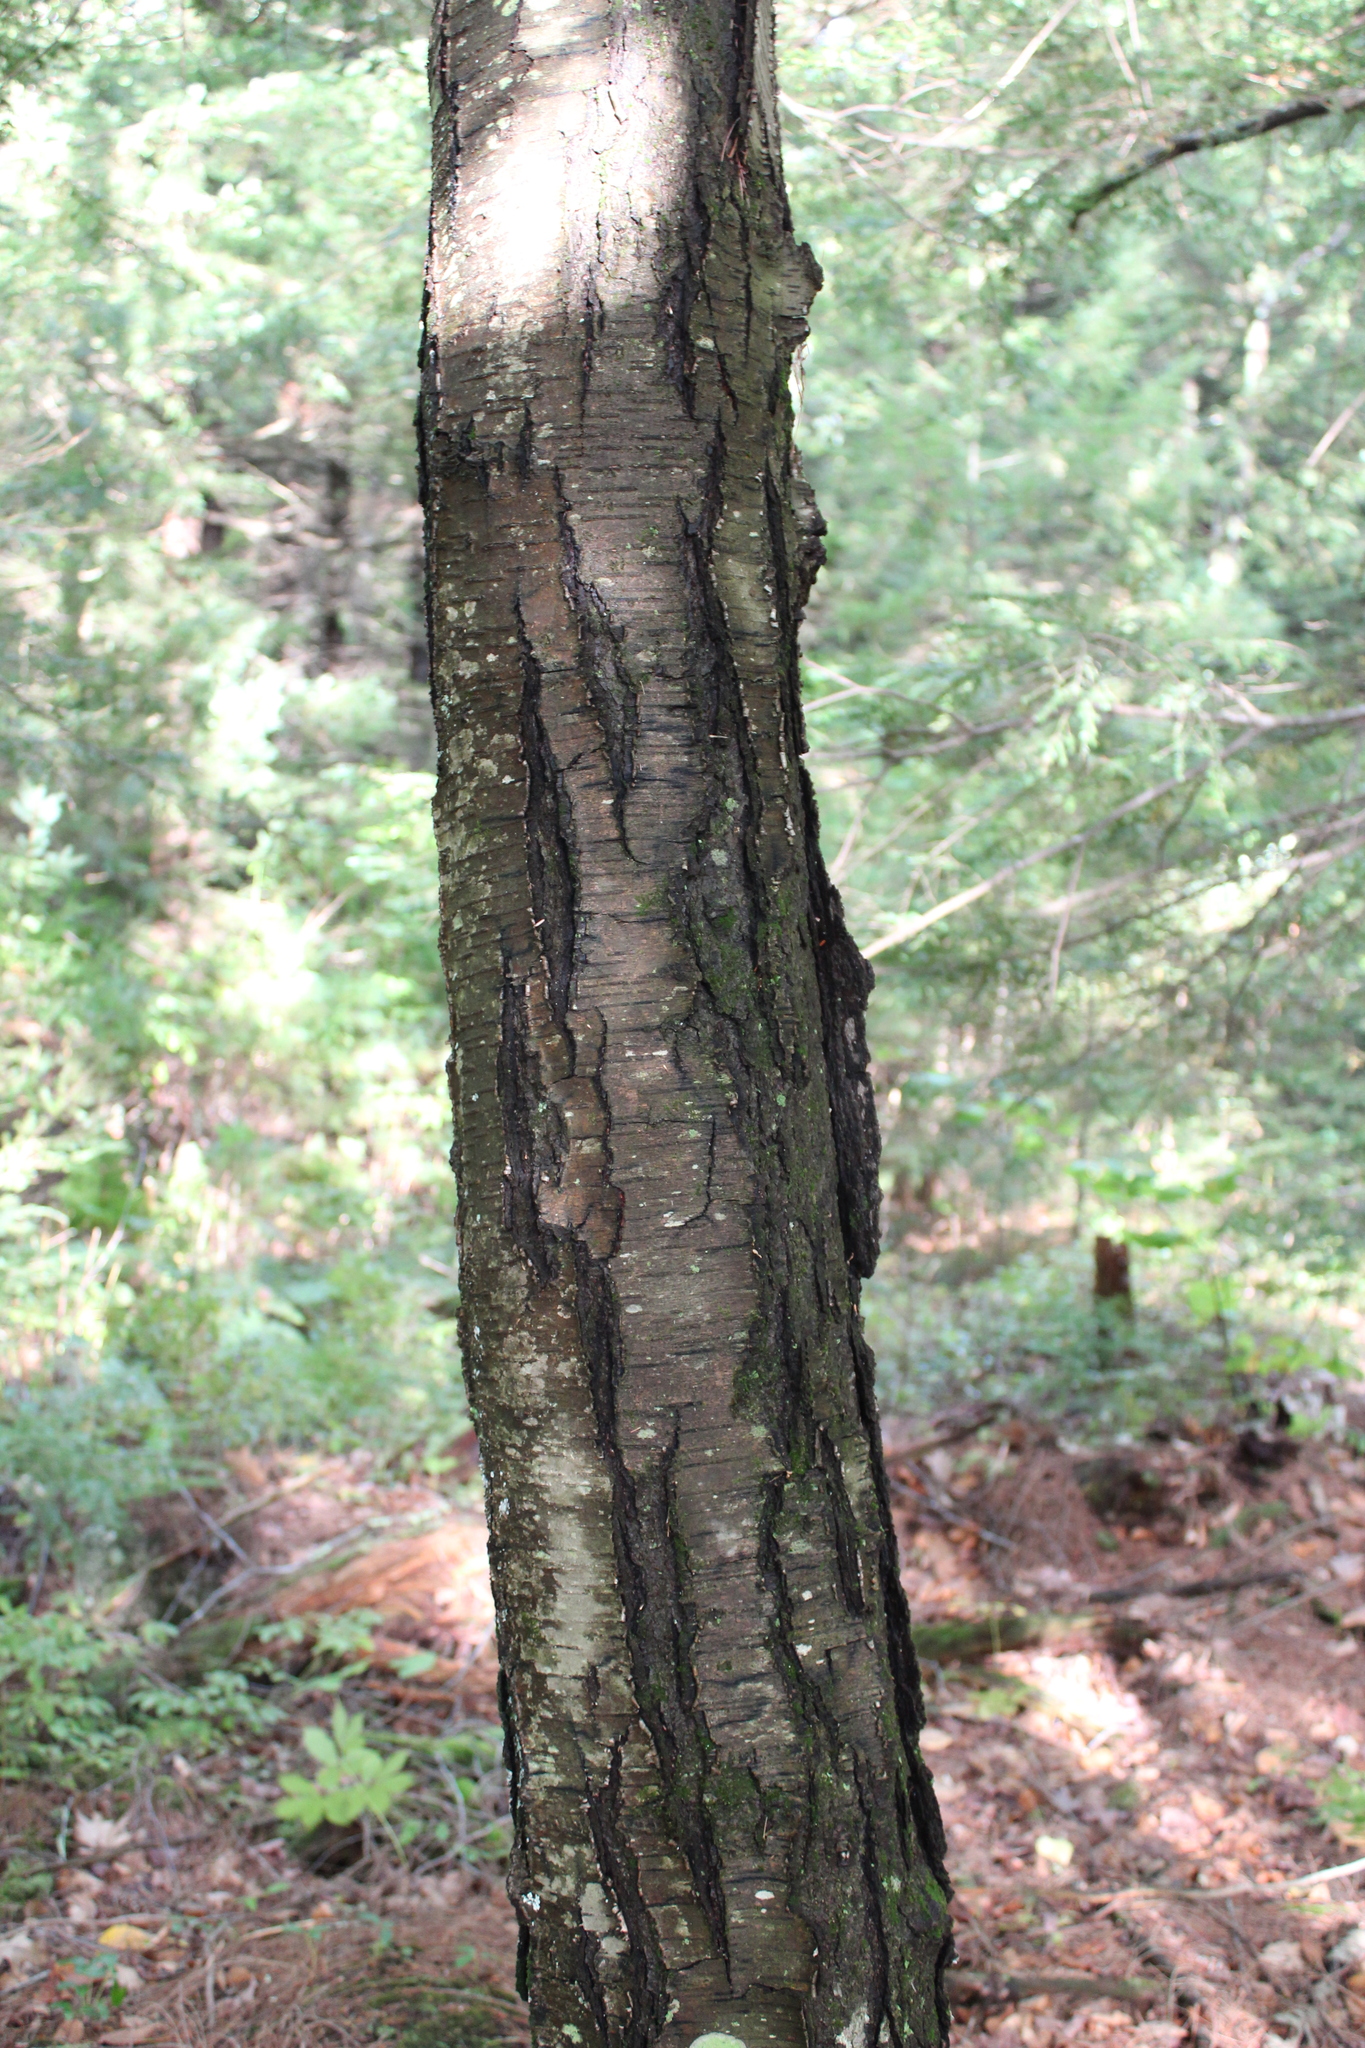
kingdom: Plantae
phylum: Tracheophyta
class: Magnoliopsida
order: Fagales
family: Betulaceae
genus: Betula
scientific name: Betula lenta
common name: Black birch
